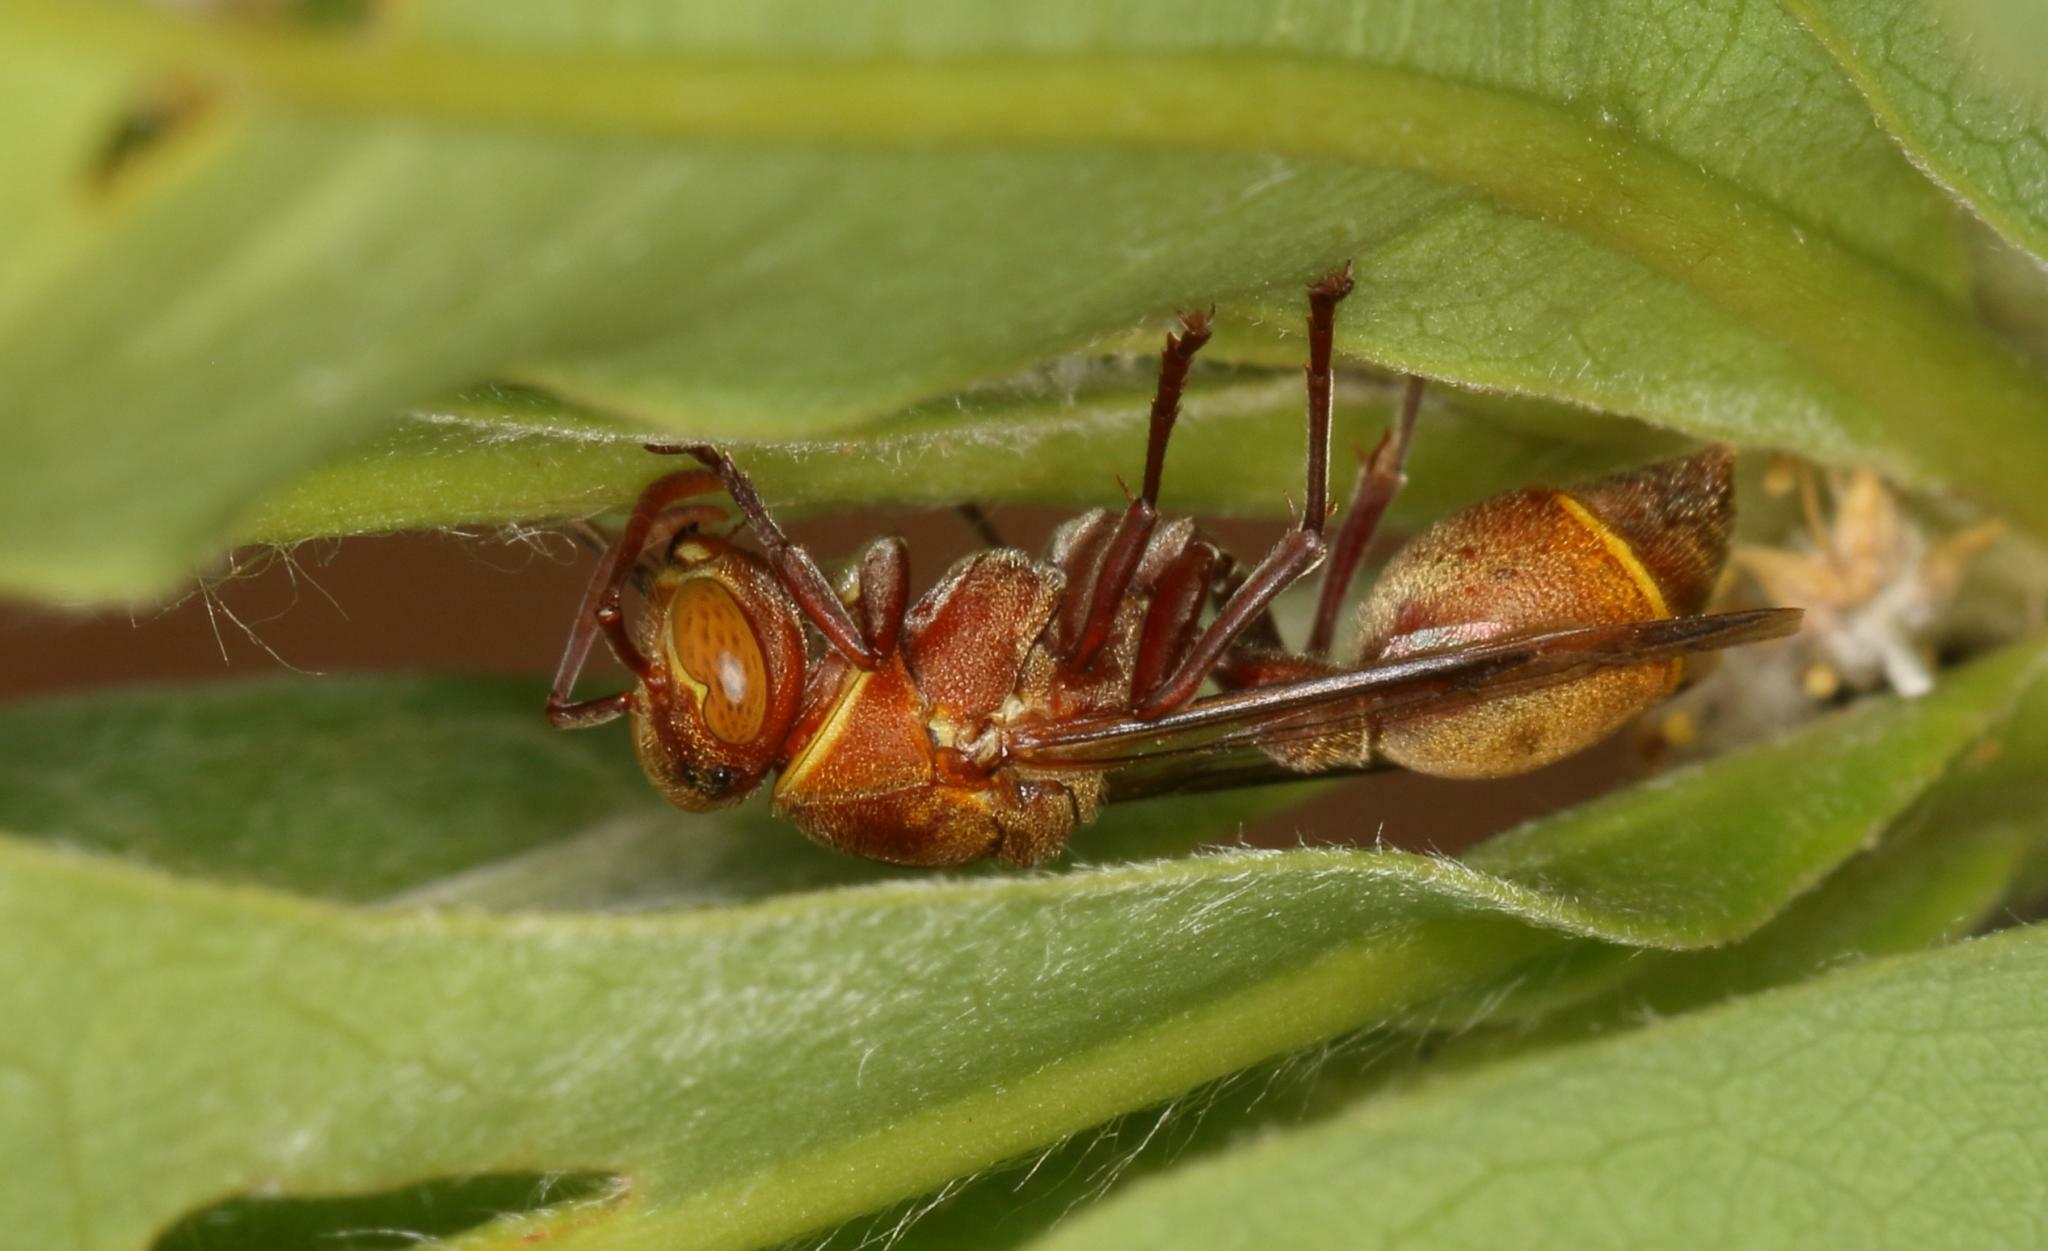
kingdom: Animalia
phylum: Arthropoda
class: Insecta
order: Hymenoptera
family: Vespidae
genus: Ropalidia
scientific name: Ropalidia distigma
